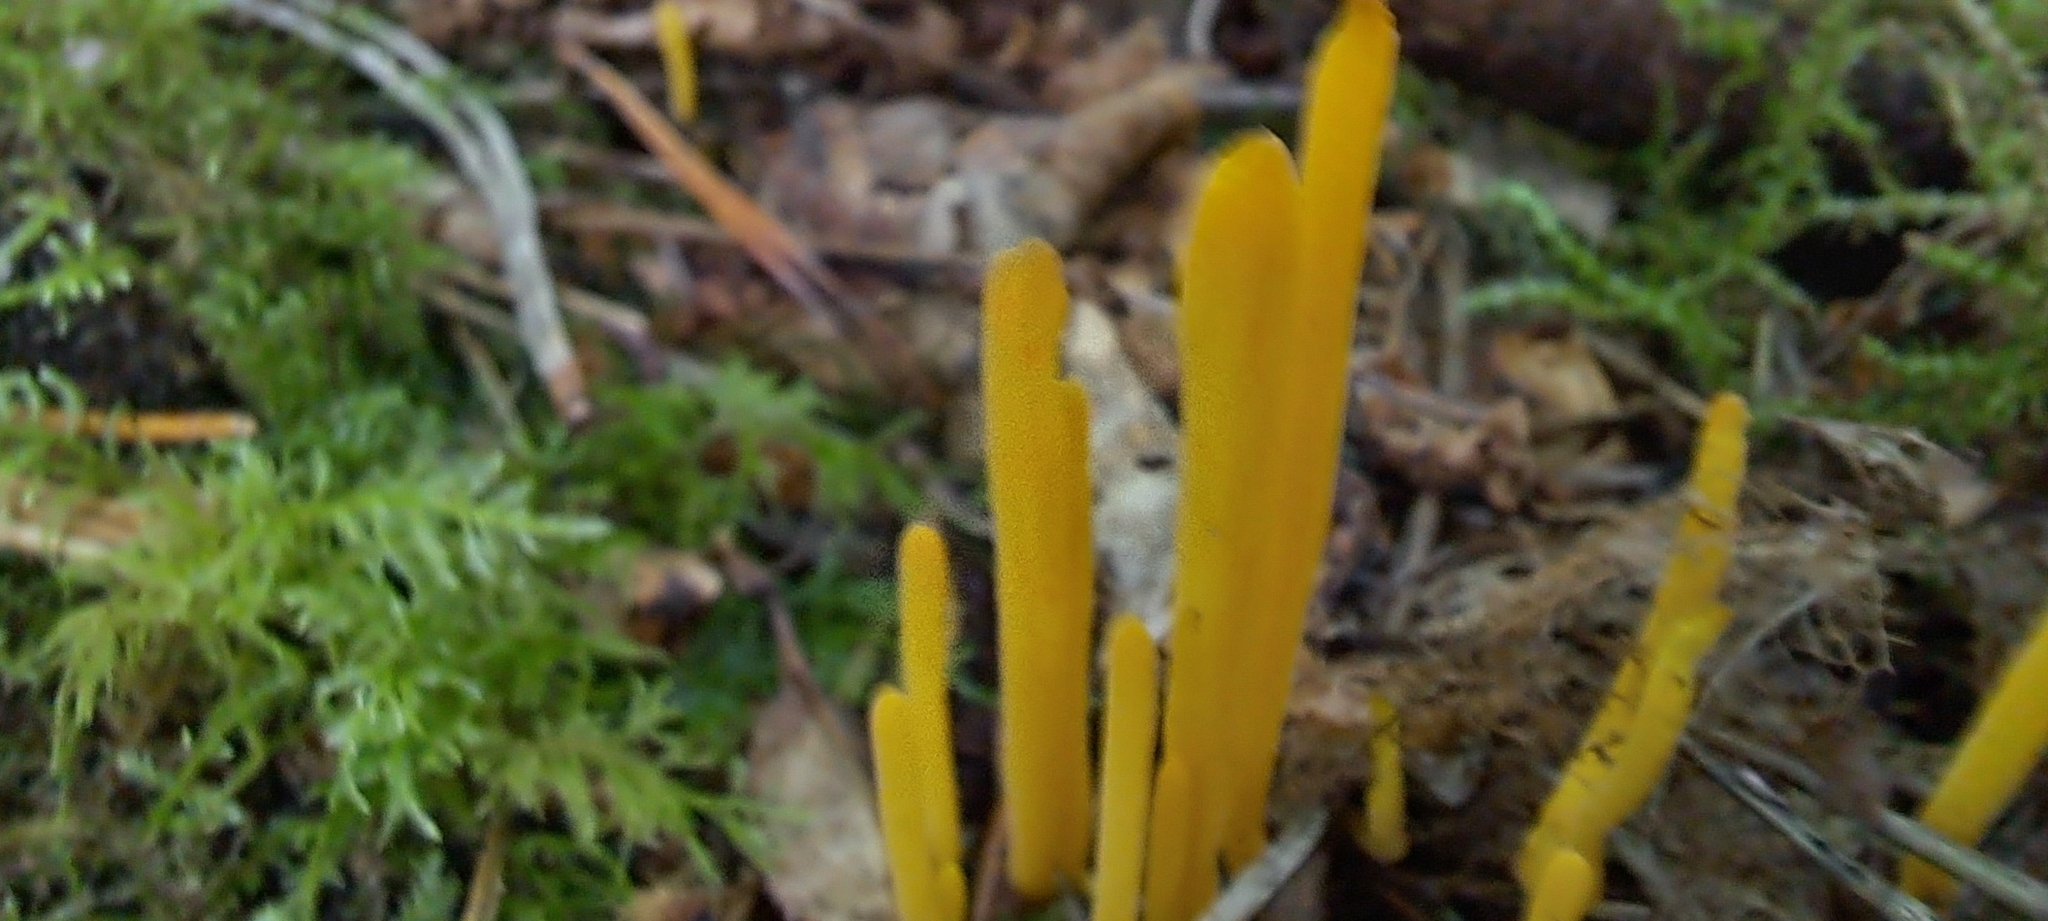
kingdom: Fungi
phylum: Basidiomycota
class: Agaricomycetes
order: Agaricales
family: Clavariaceae
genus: Clavulinopsis
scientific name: Clavulinopsis helvola
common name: Yellow club
